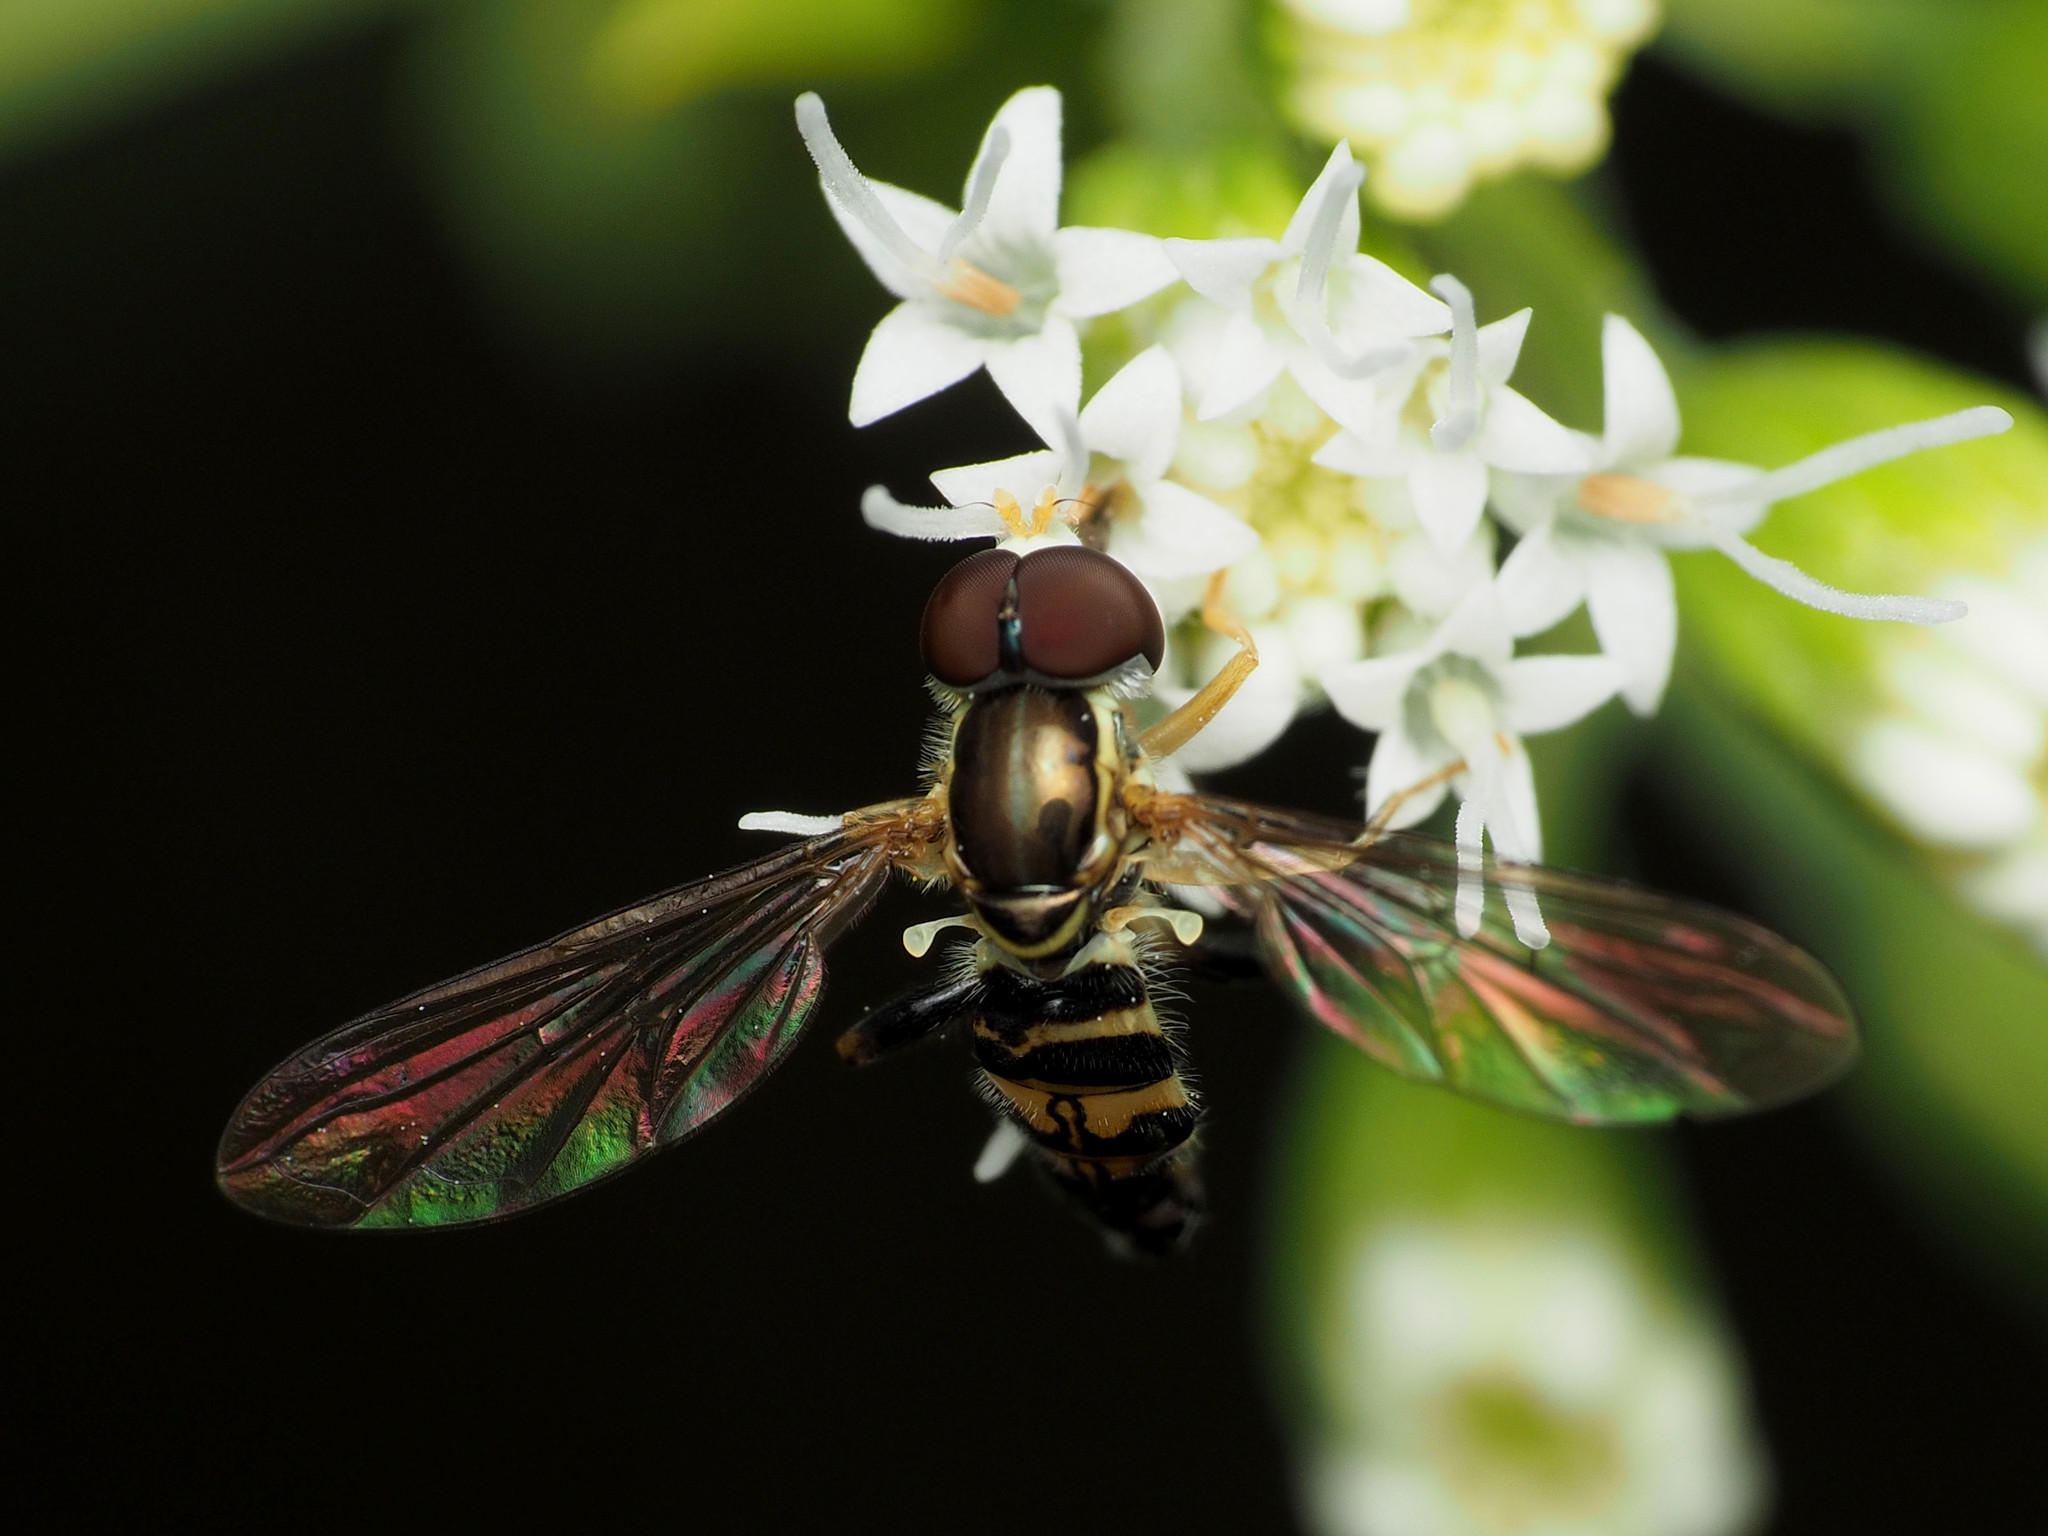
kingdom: Animalia
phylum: Arthropoda
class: Insecta
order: Diptera
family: Syrphidae
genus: Toxomerus
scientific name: Toxomerus geminatus
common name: Eastern calligrapher
